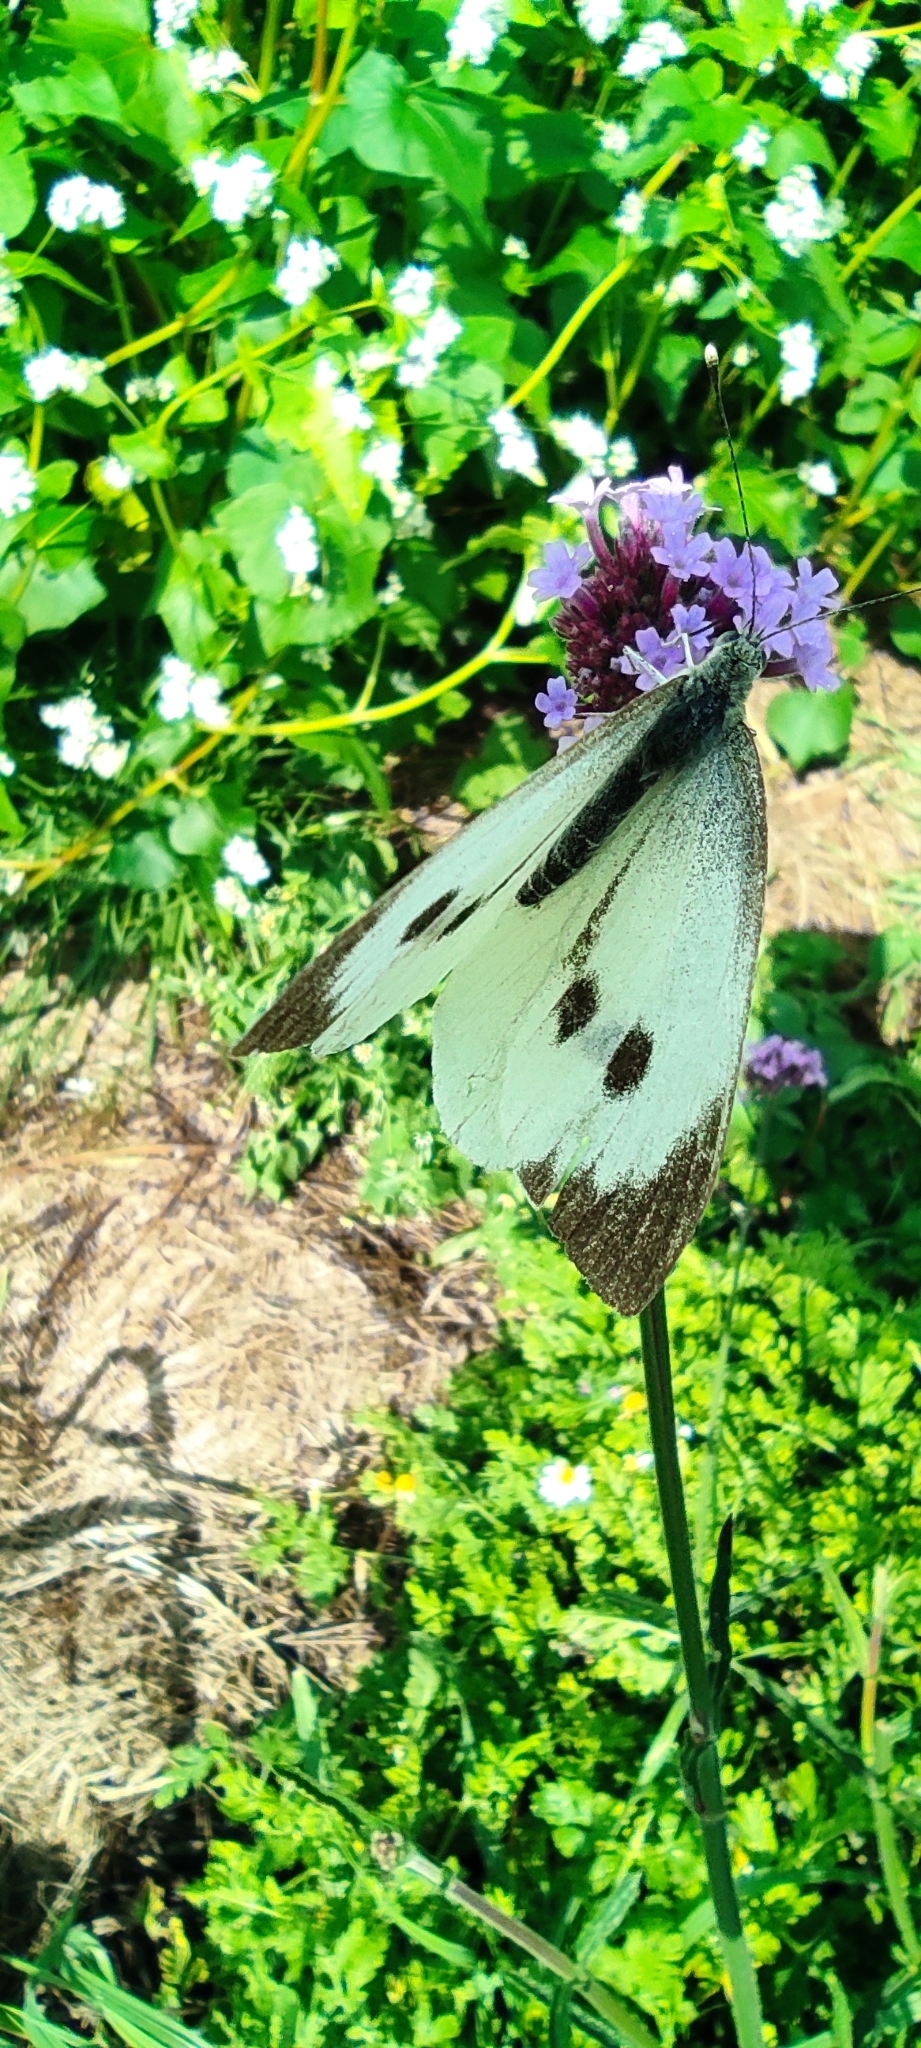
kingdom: Animalia
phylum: Arthropoda
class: Insecta
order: Lepidoptera
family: Pieridae
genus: Pieris
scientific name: Pieris brassicae
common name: Large white
